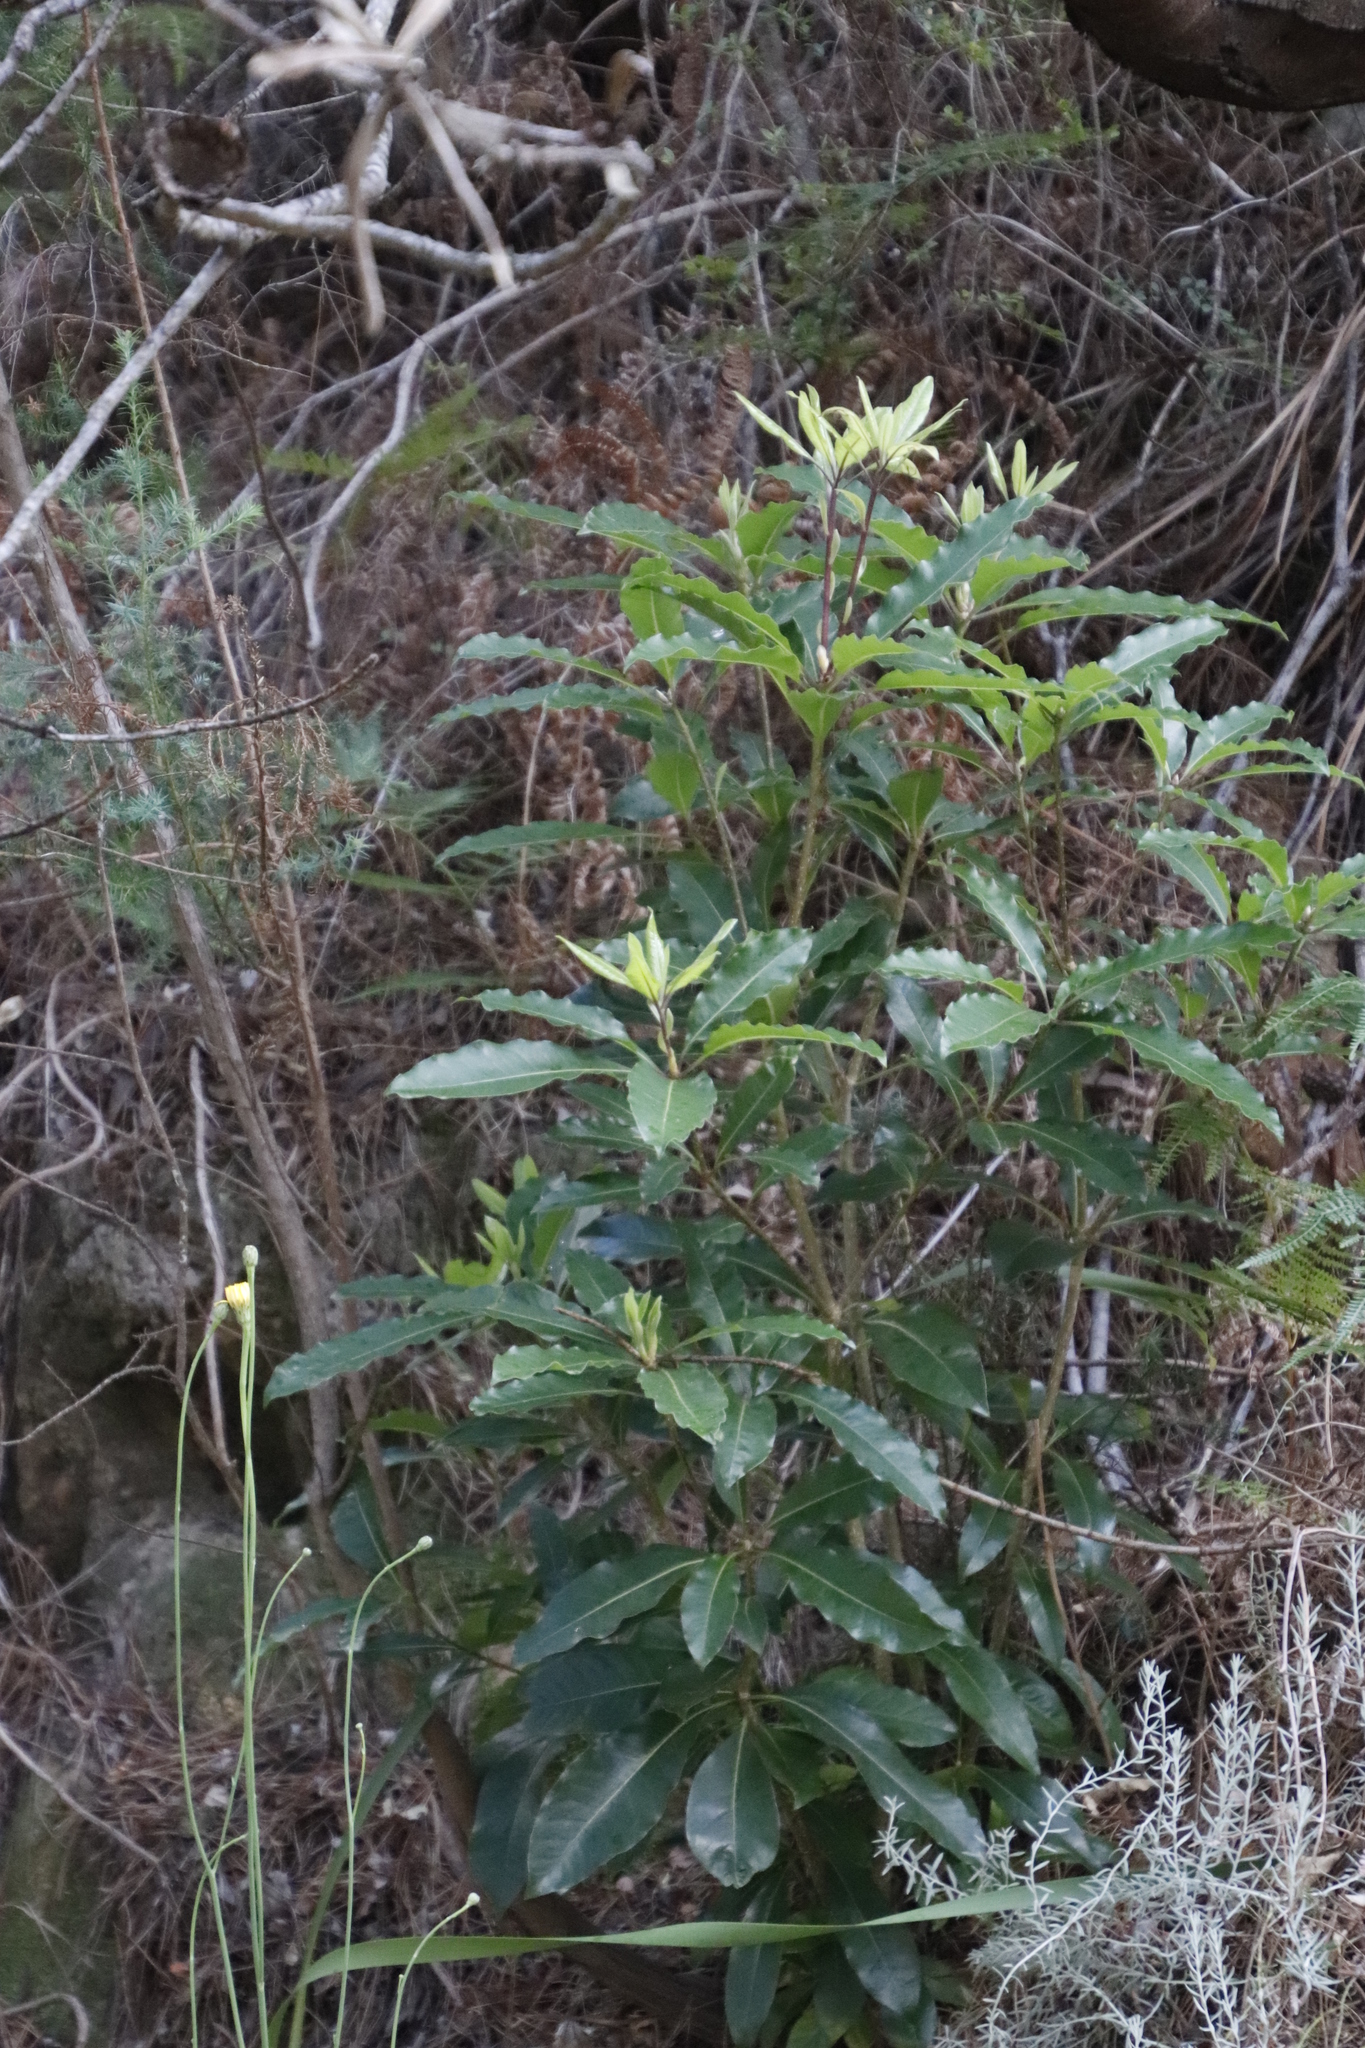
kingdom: Plantae
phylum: Tracheophyta
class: Magnoliopsida
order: Apiales
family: Pittosporaceae
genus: Pittosporum
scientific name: Pittosporum undulatum
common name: Australian cheesewood
